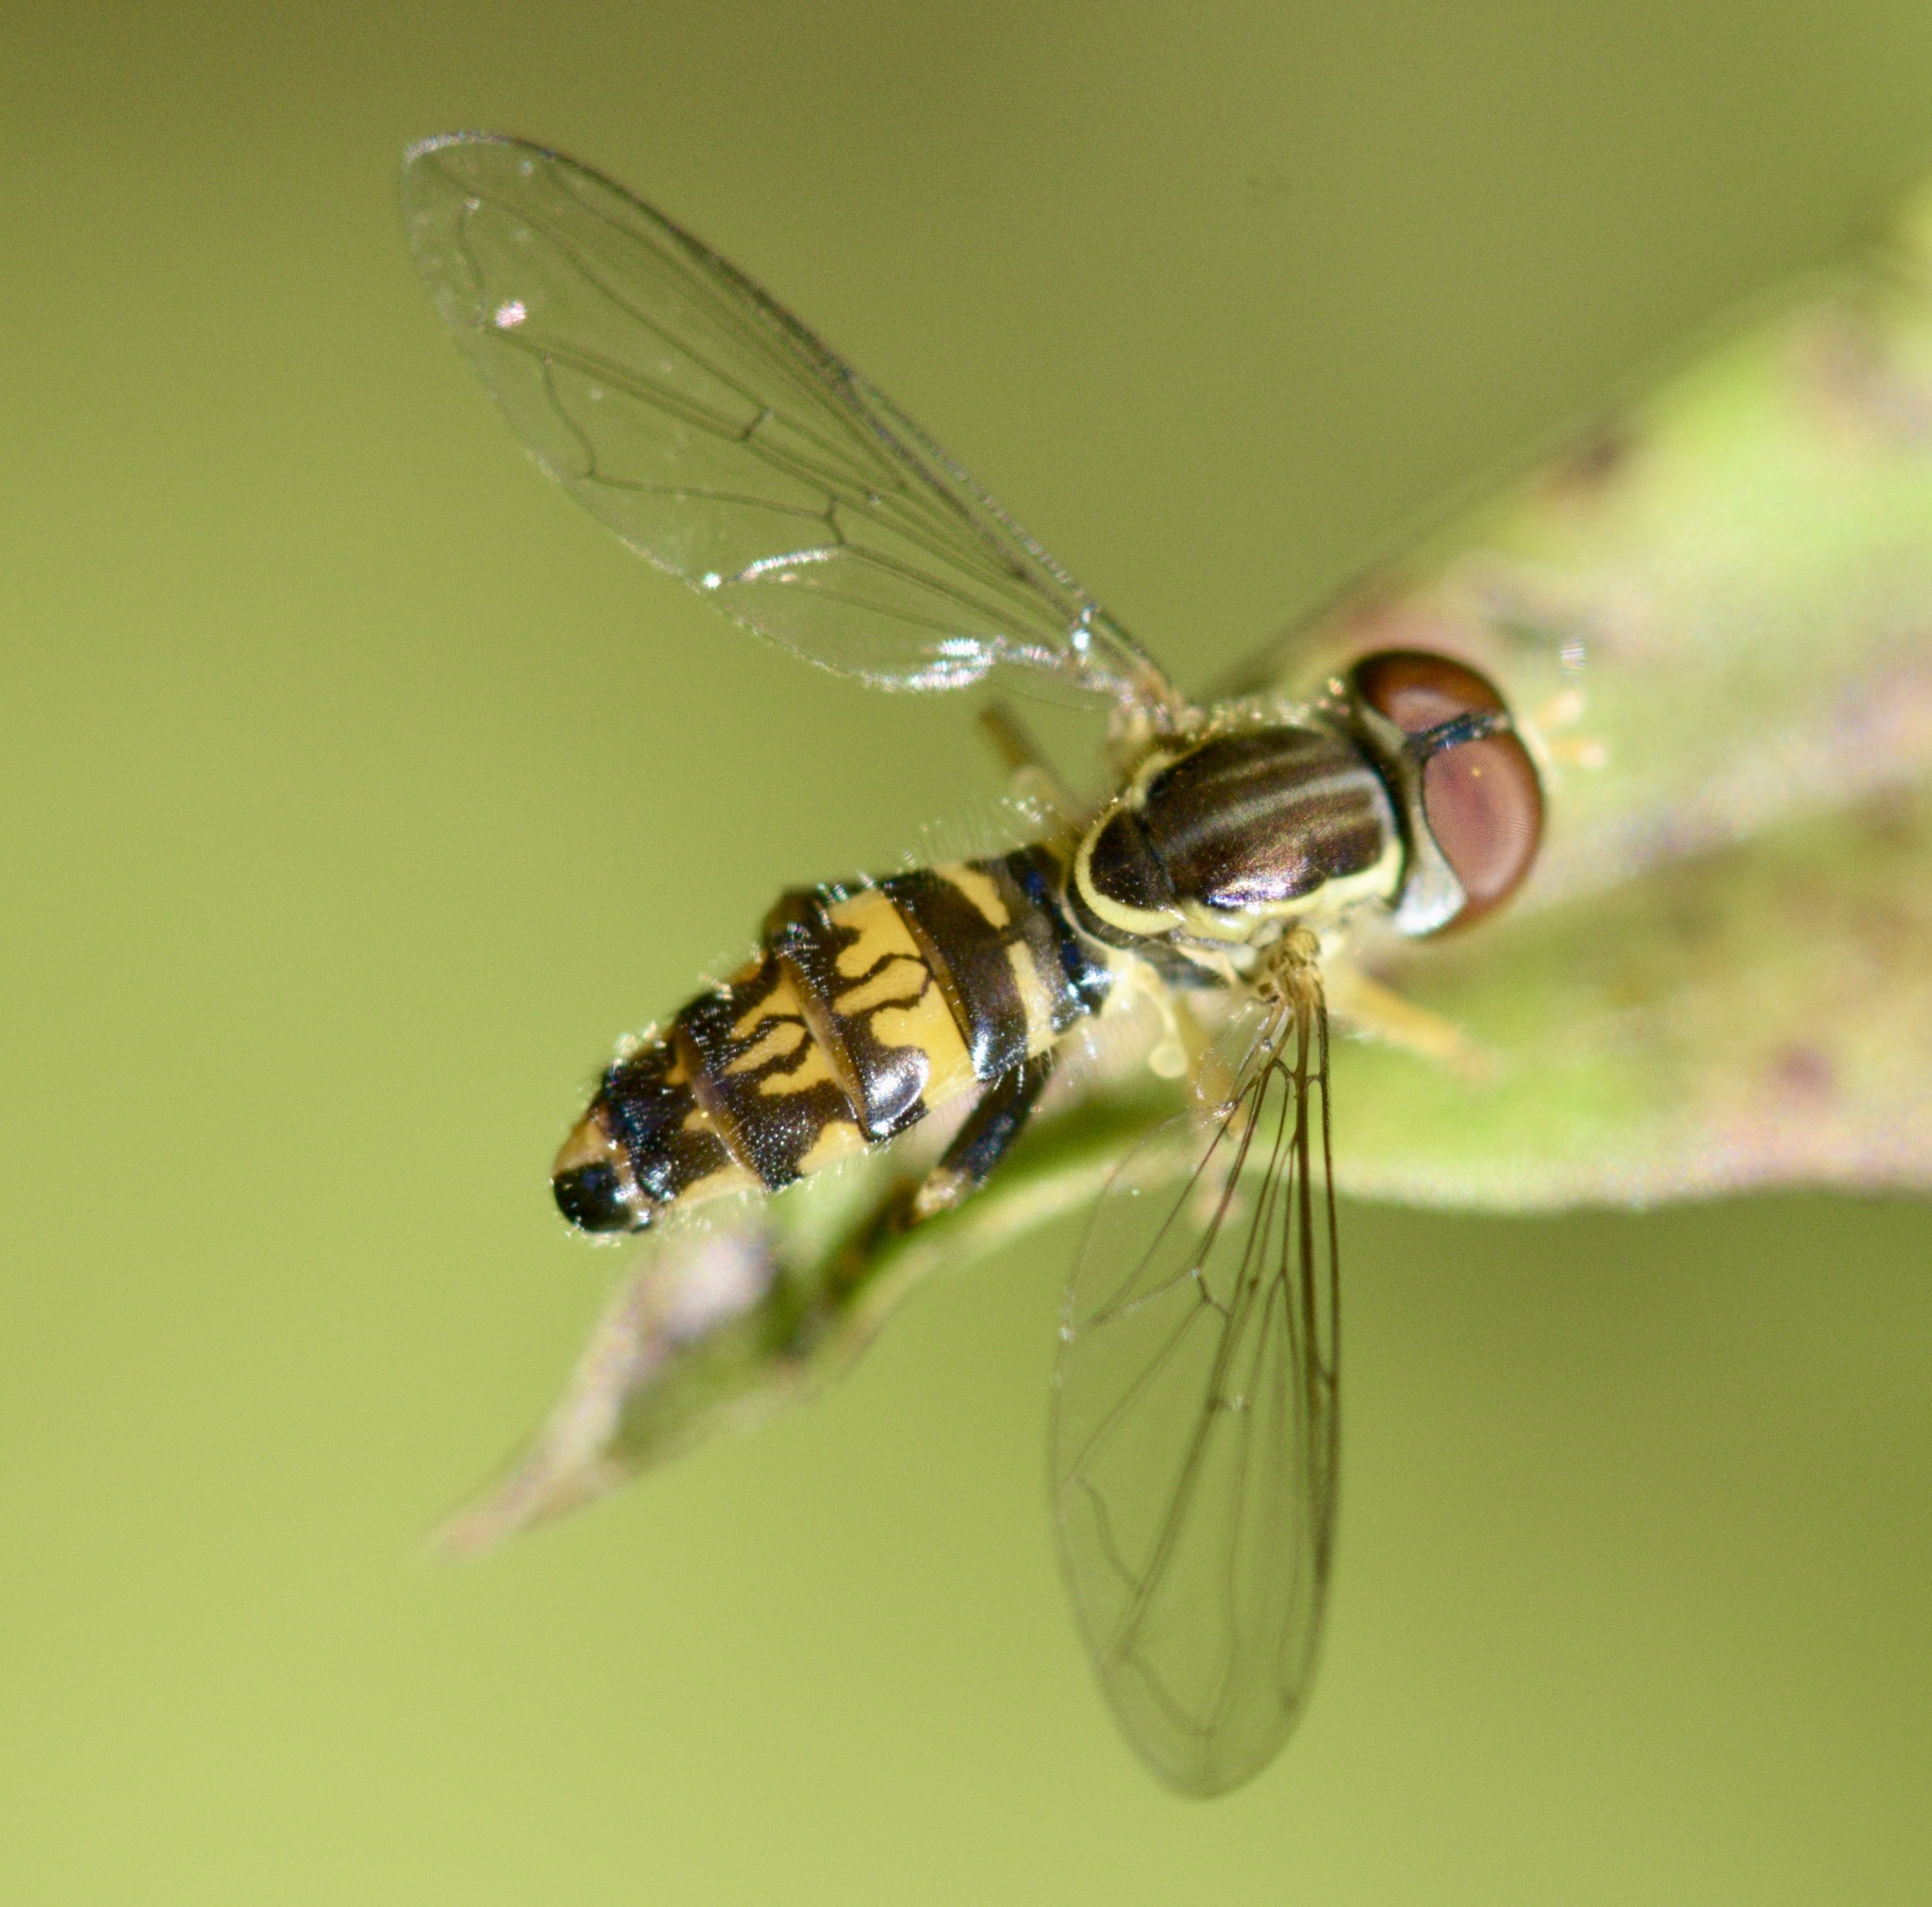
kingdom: Animalia
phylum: Arthropoda
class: Insecta
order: Diptera
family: Syrphidae
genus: Toxomerus
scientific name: Toxomerus geminatus
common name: Eastern calligrapher
